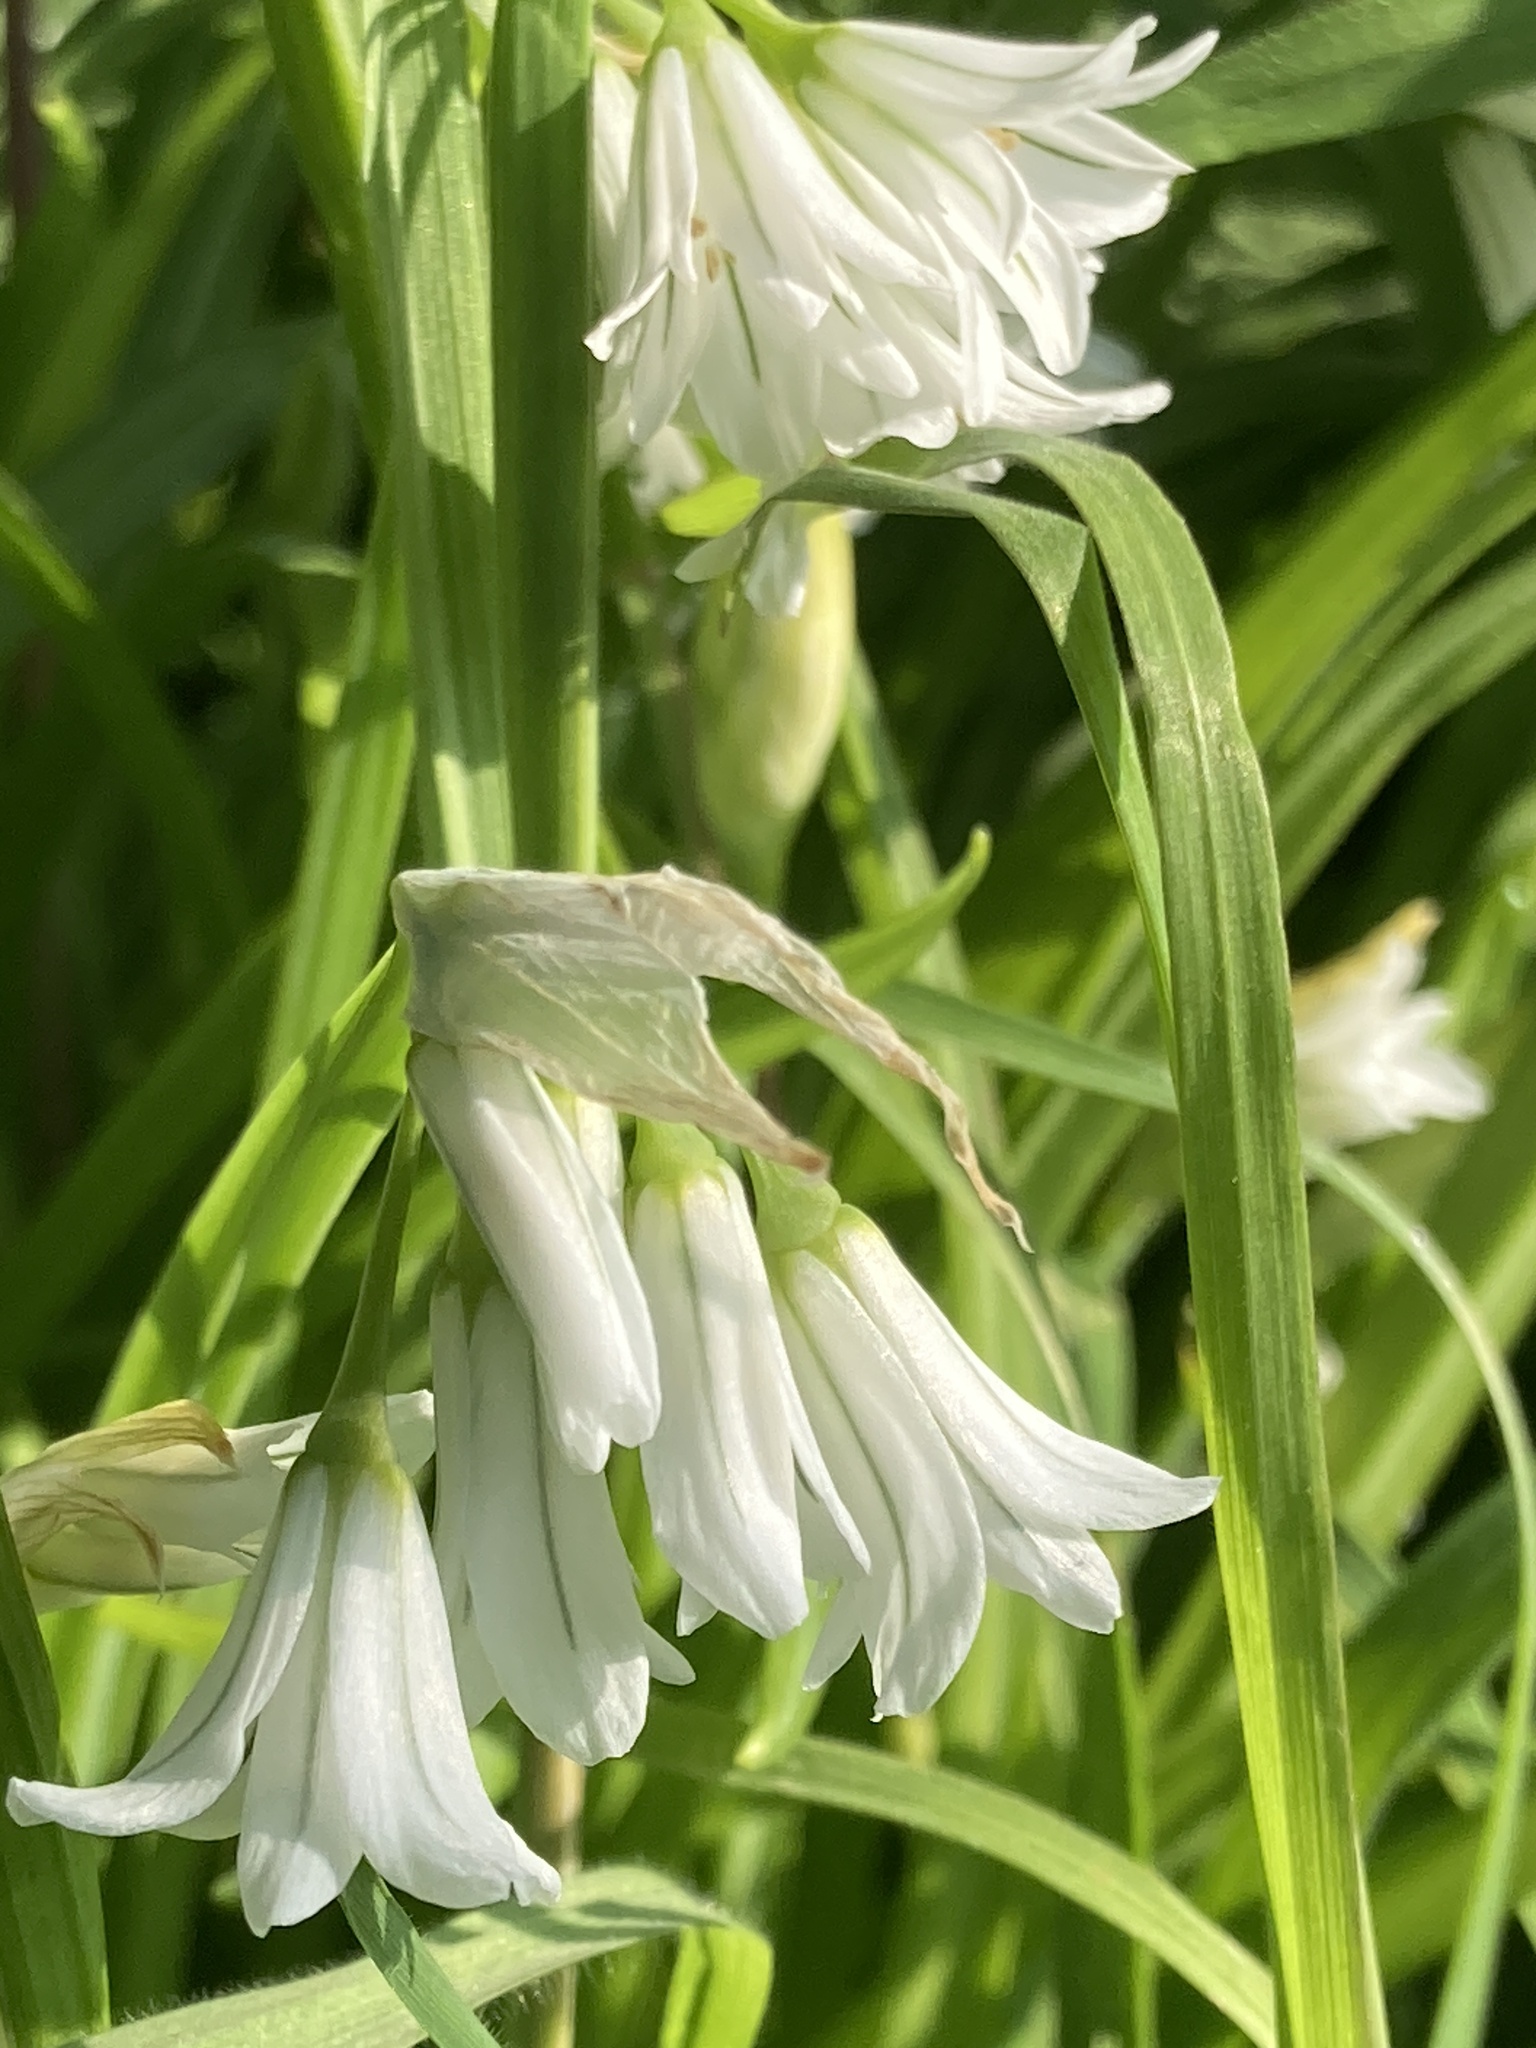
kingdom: Plantae
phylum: Tracheophyta
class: Liliopsida
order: Asparagales
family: Amaryllidaceae
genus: Allium
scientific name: Allium triquetrum
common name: Three-cornered garlic
